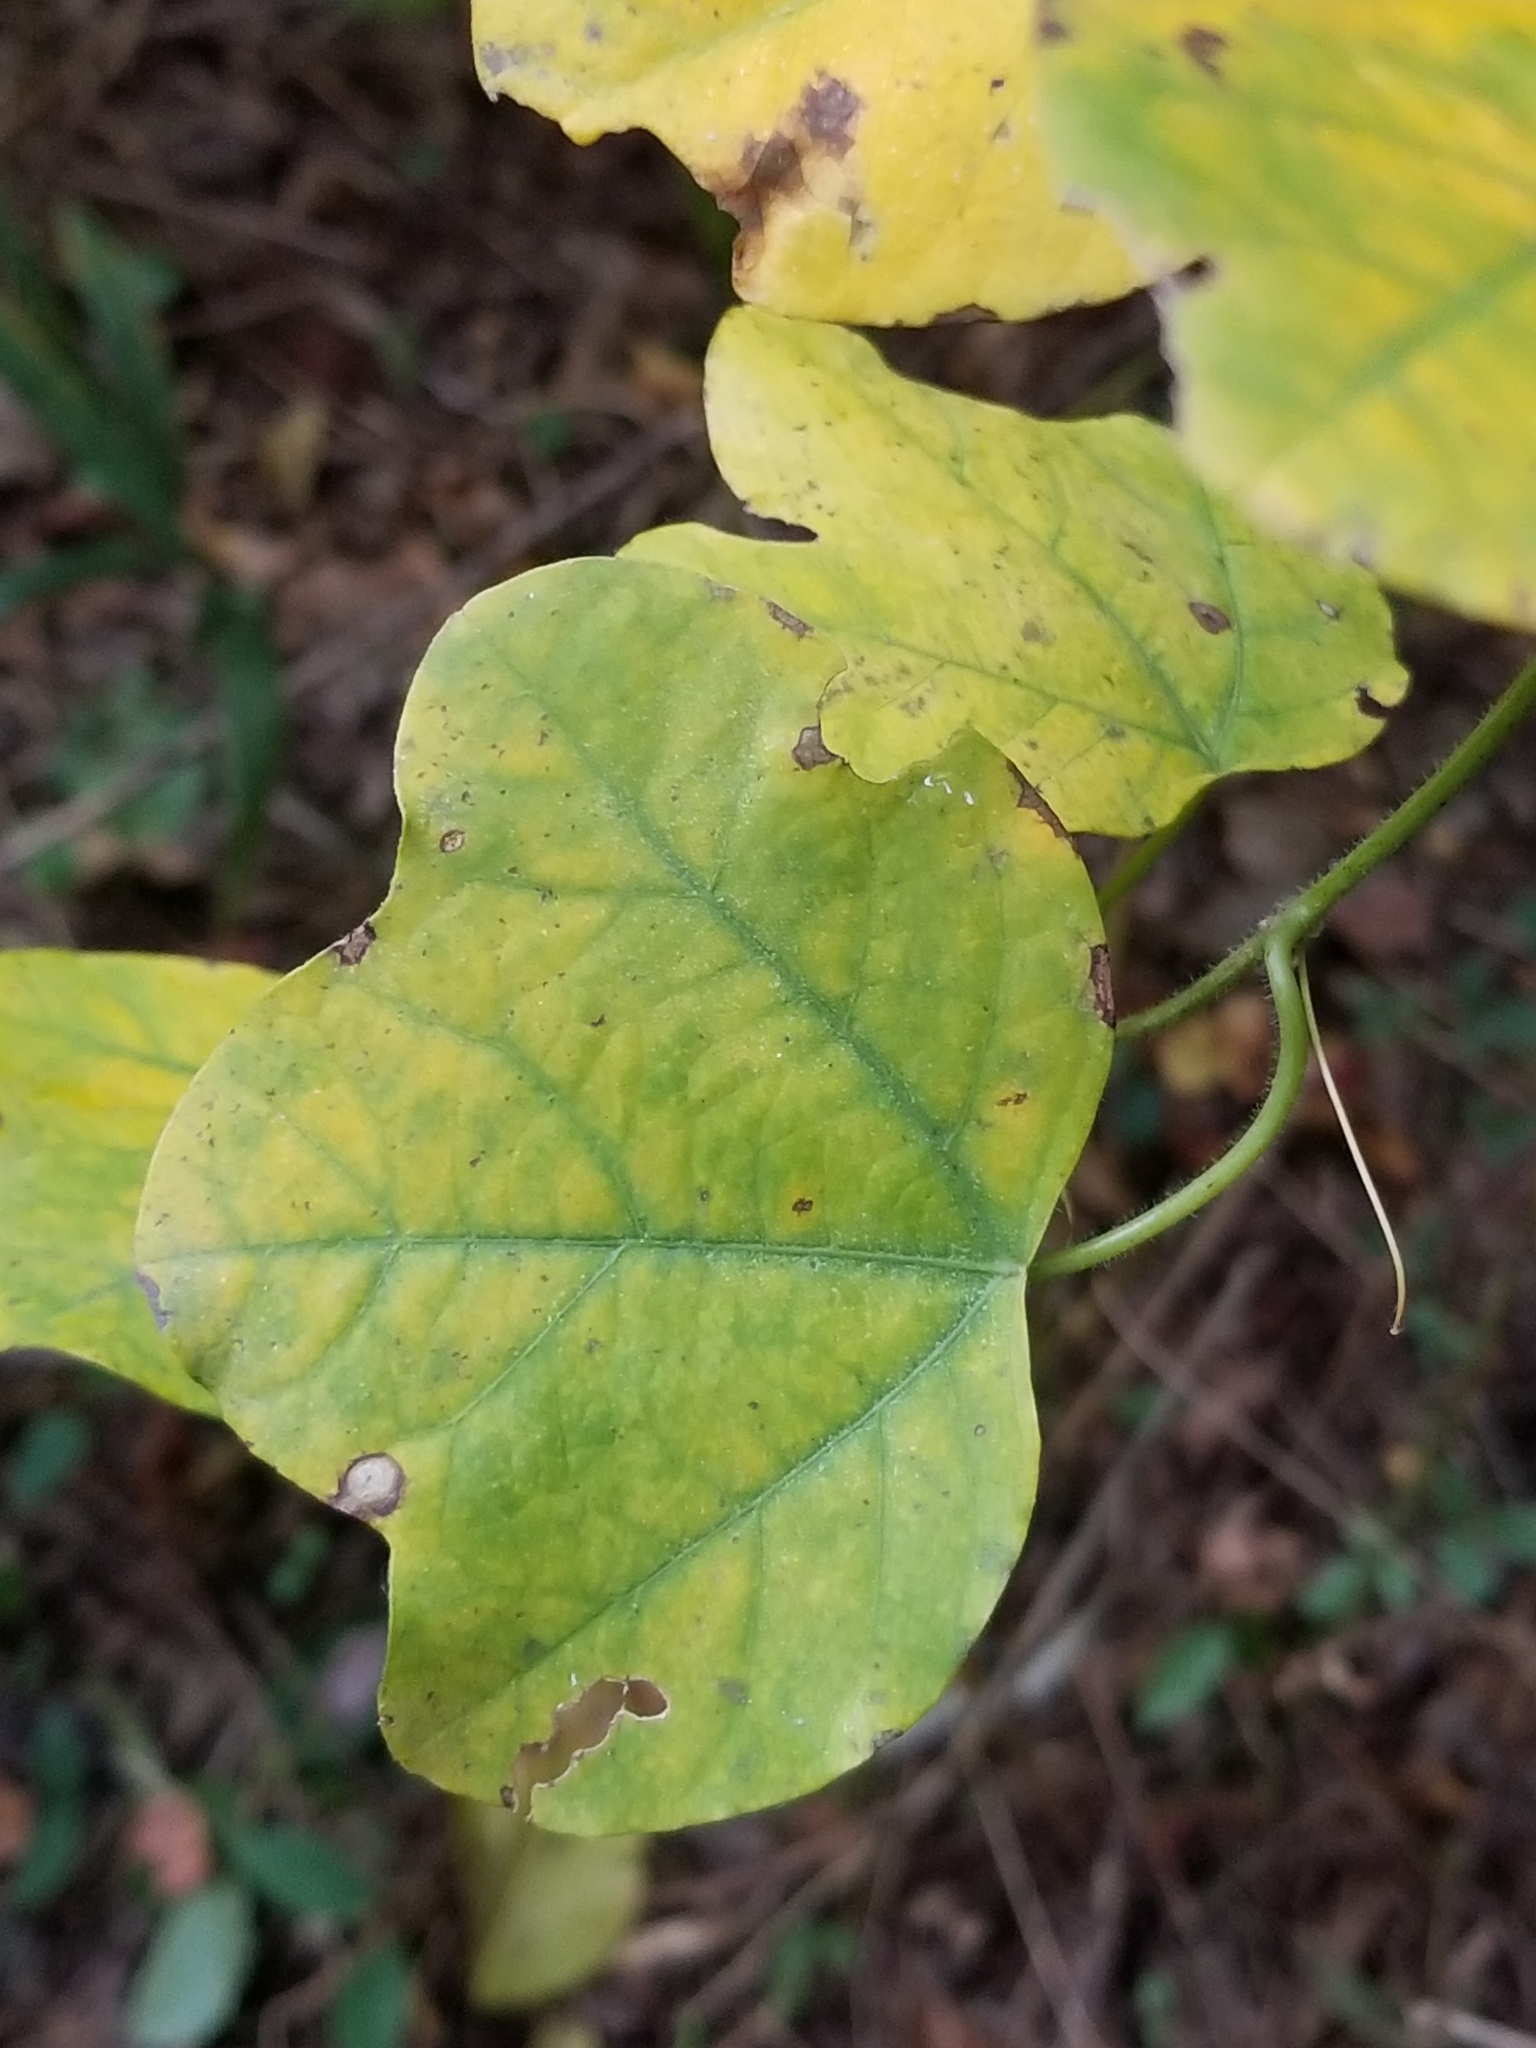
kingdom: Plantae
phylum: Tracheophyta
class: Magnoliopsida
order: Malpighiales
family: Passifloraceae
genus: Passiflora
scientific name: Passiflora lutea
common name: Yellow passionflower
